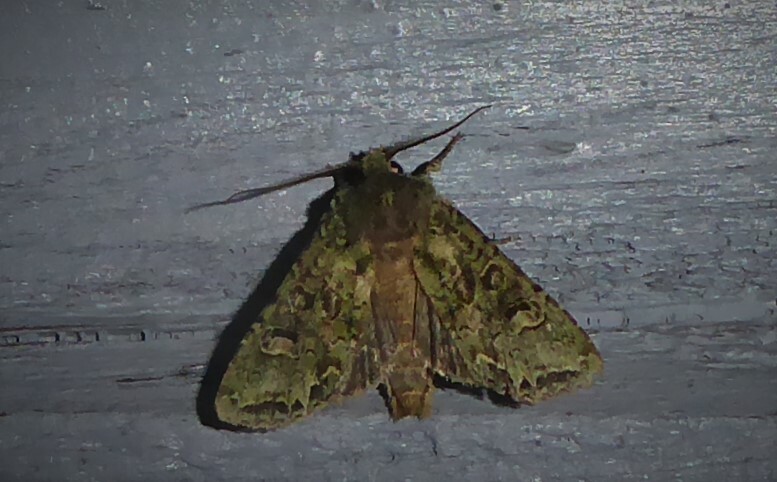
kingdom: Animalia
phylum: Arthropoda
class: Insecta
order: Lepidoptera
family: Noctuidae
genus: Ichneutica
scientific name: Ichneutica
